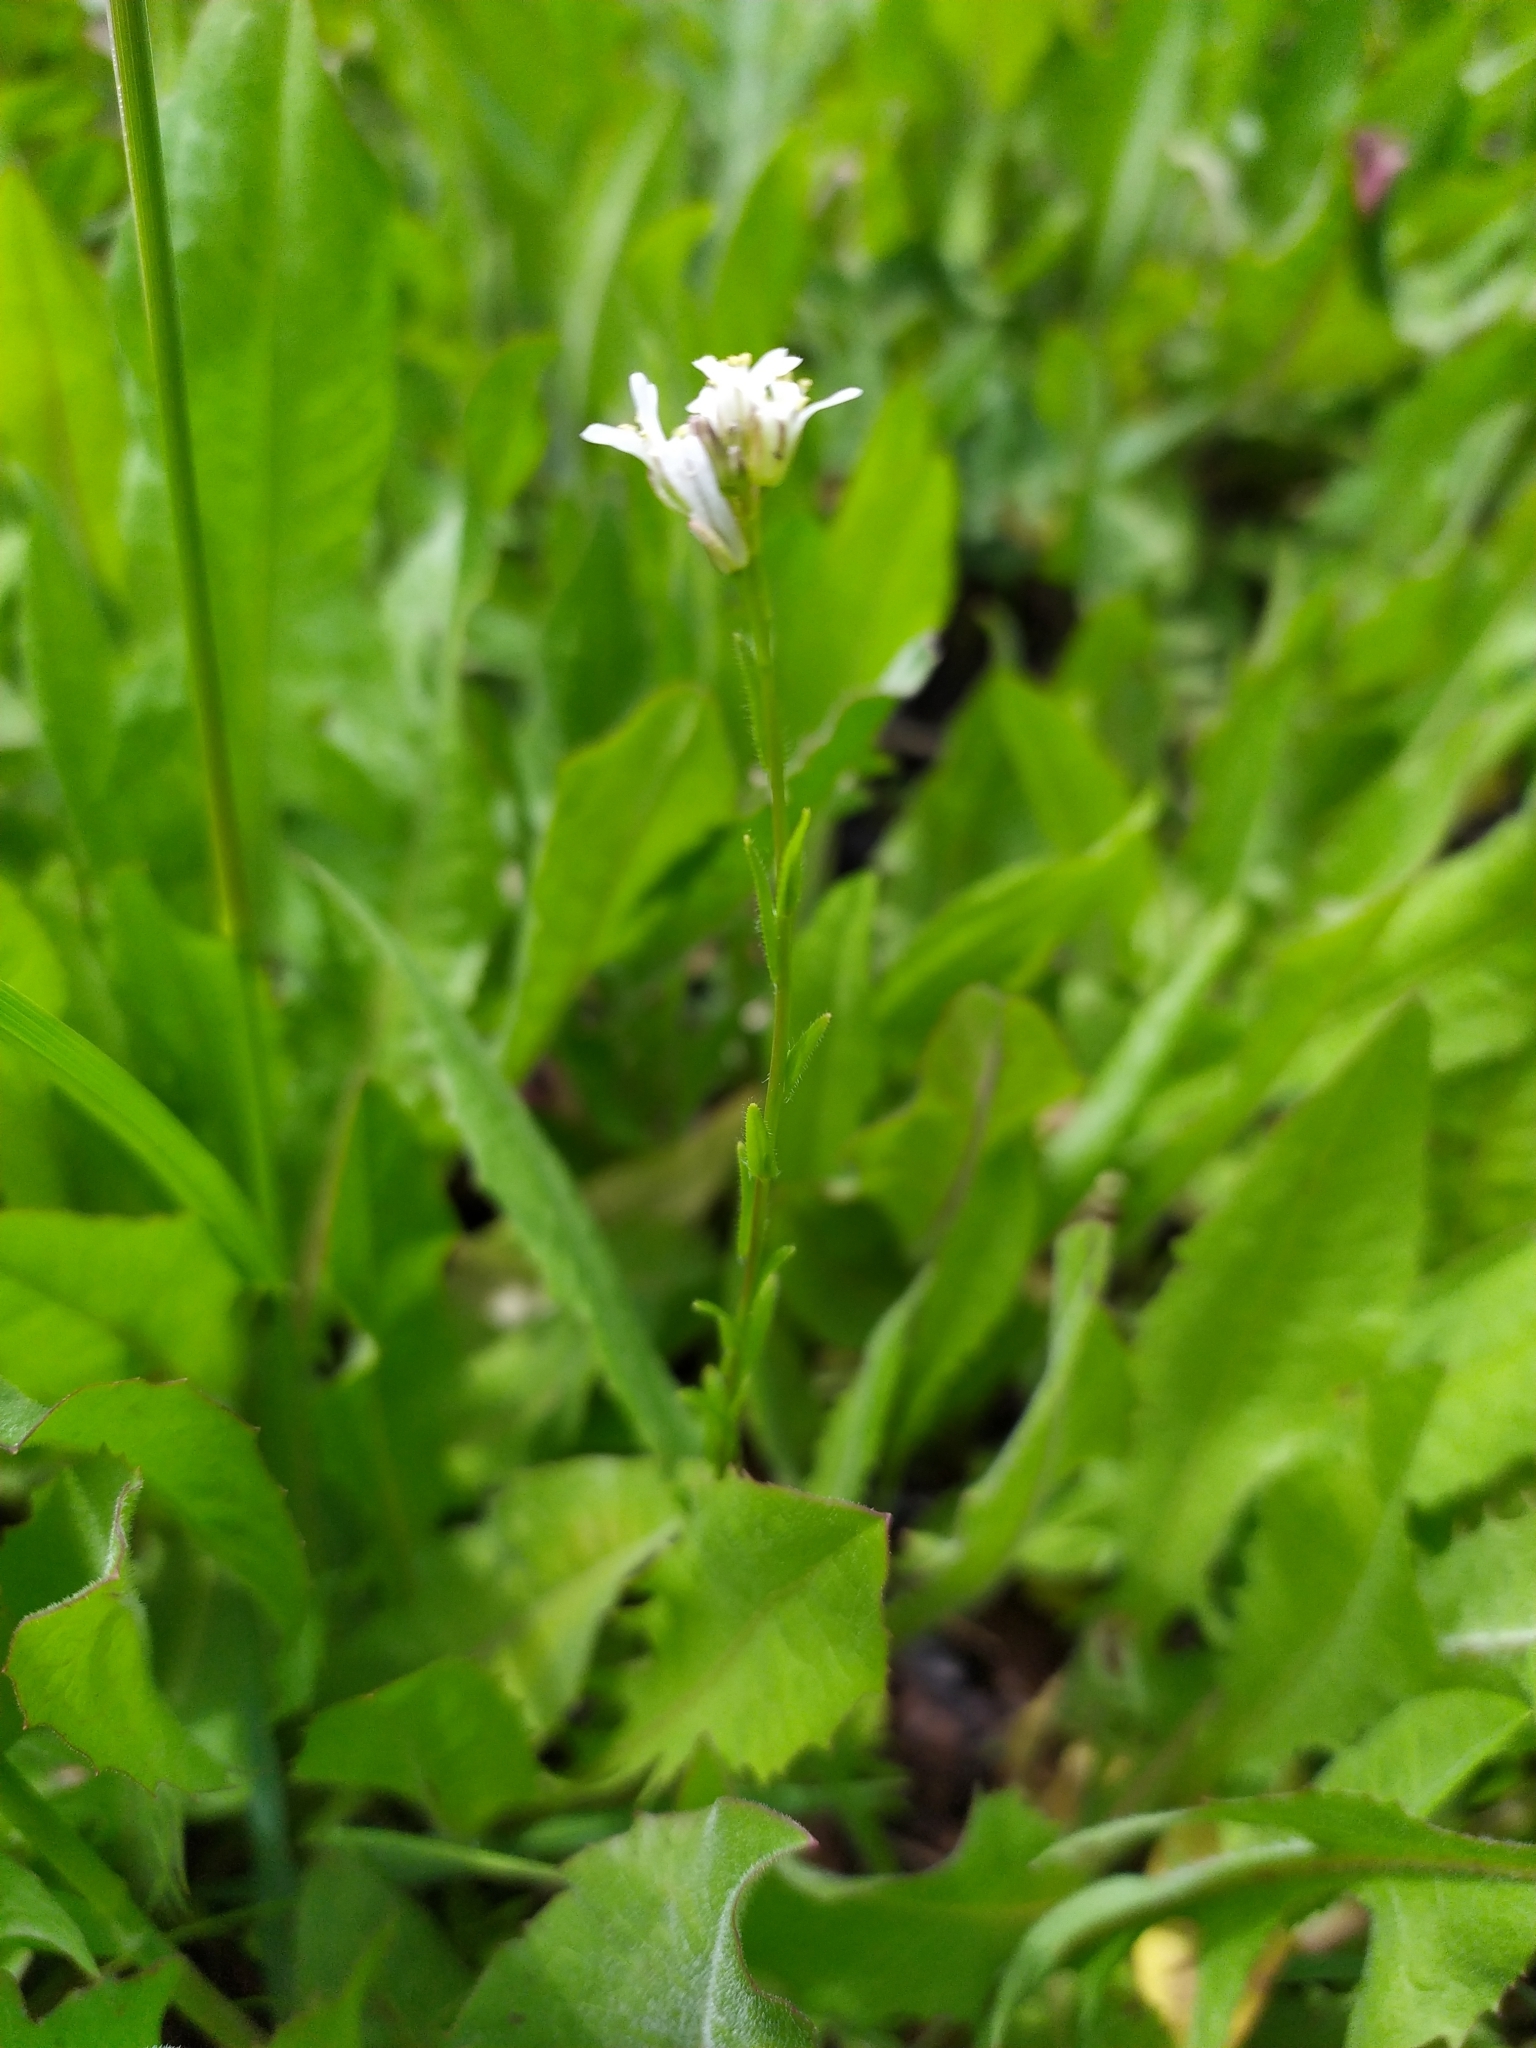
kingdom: Plantae
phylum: Tracheophyta
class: Magnoliopsida
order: Brassicales
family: Brassicaceae
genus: Arabis
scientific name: Arabis hirsuta
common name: Hairy rock-cress
